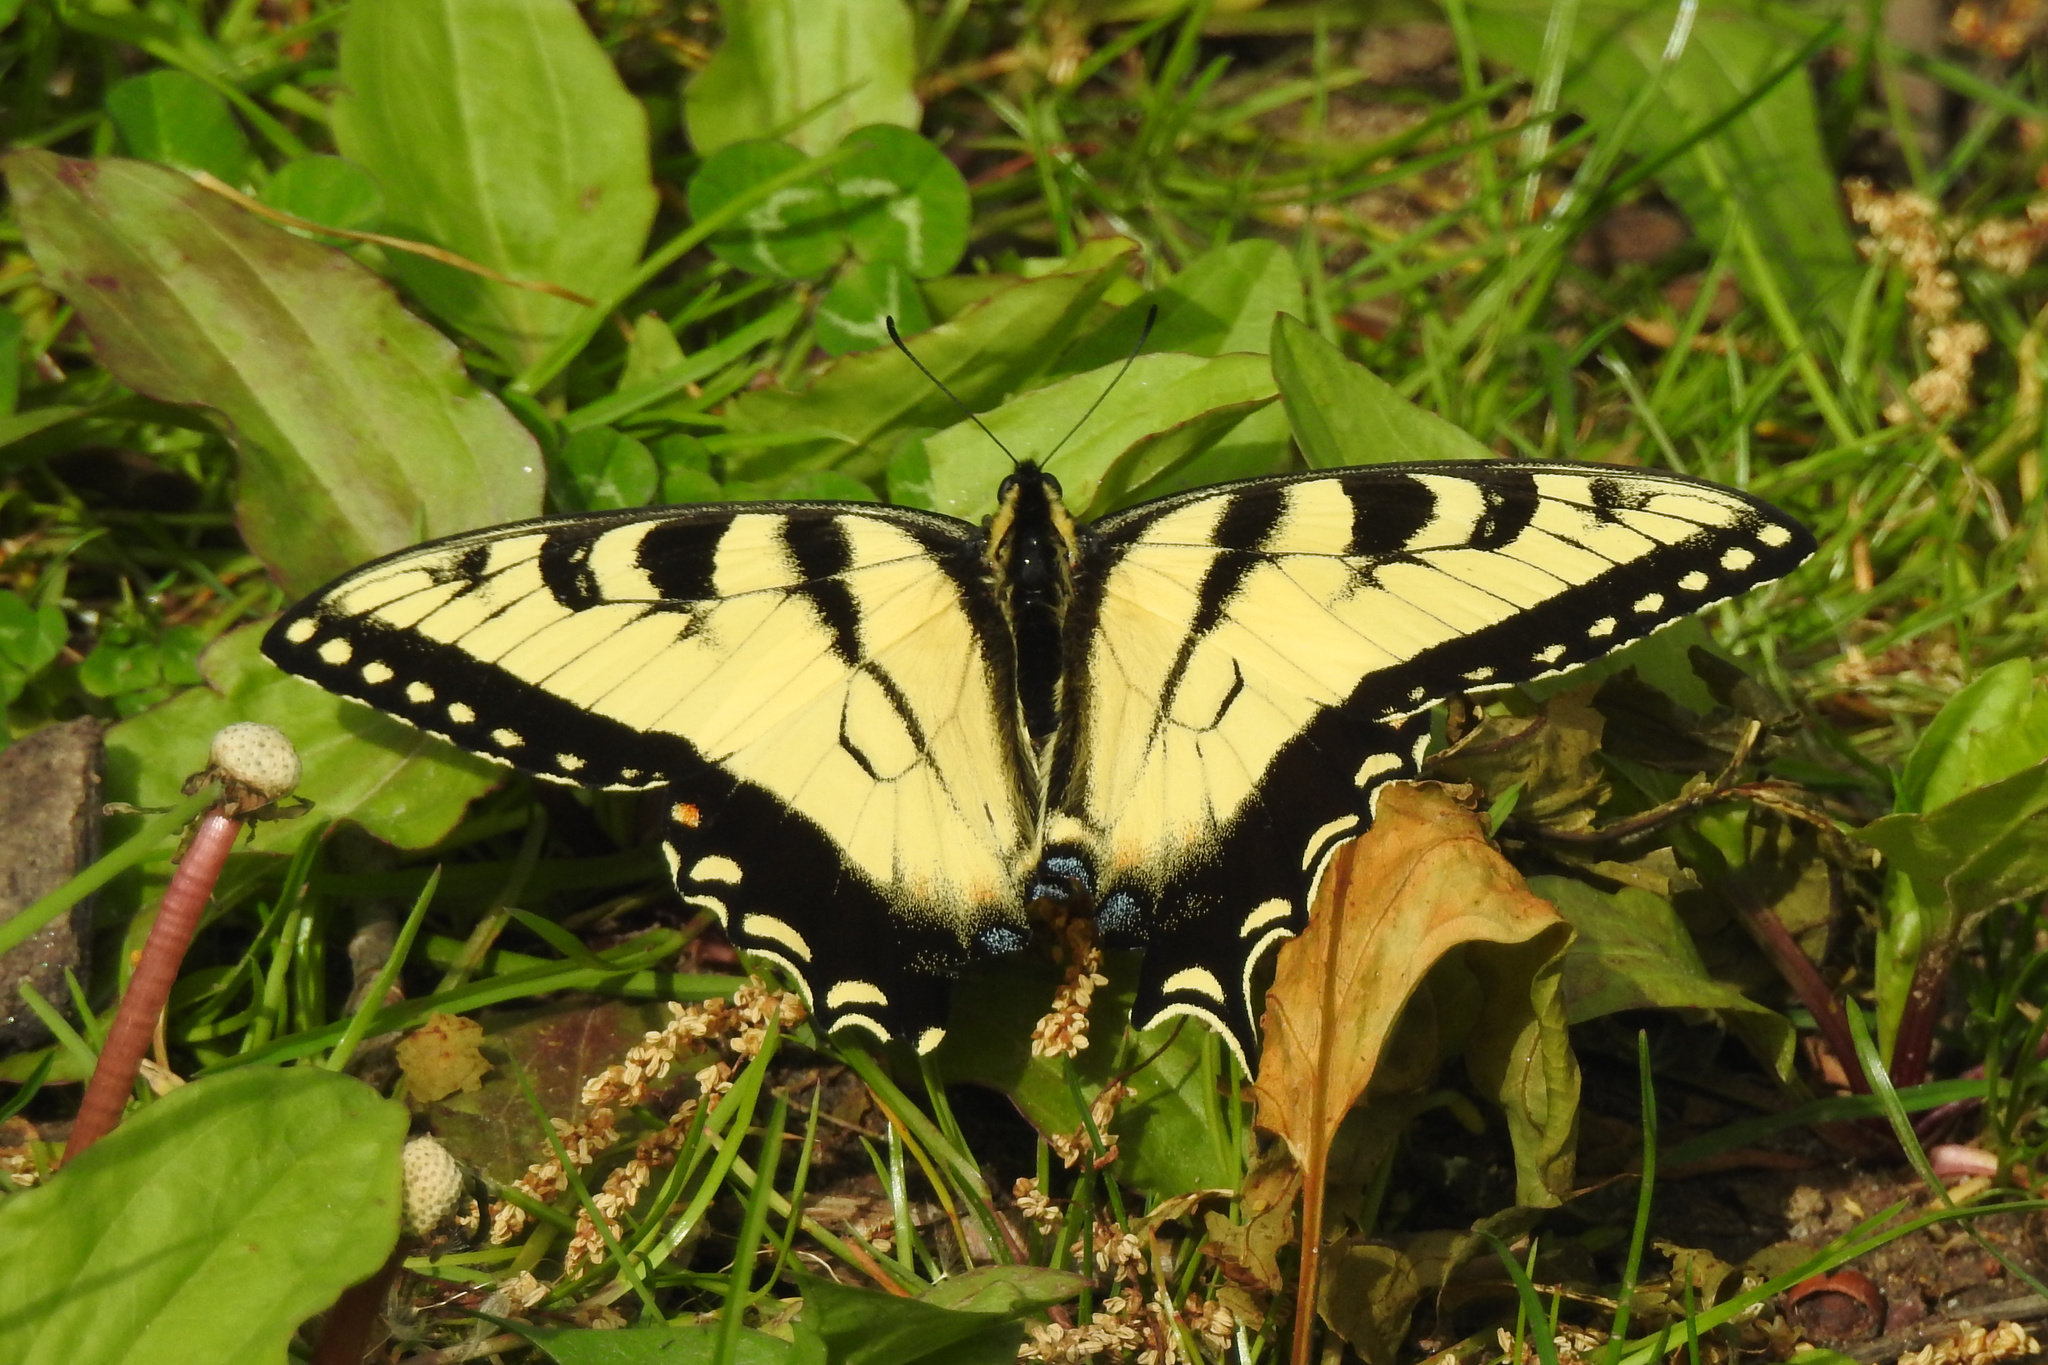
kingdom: Animalia
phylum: Arthropoda
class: Insecta
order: Lepidoptera
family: Papilionidae
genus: Papilio
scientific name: Papilio glaucus
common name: Tiger swallowtail
